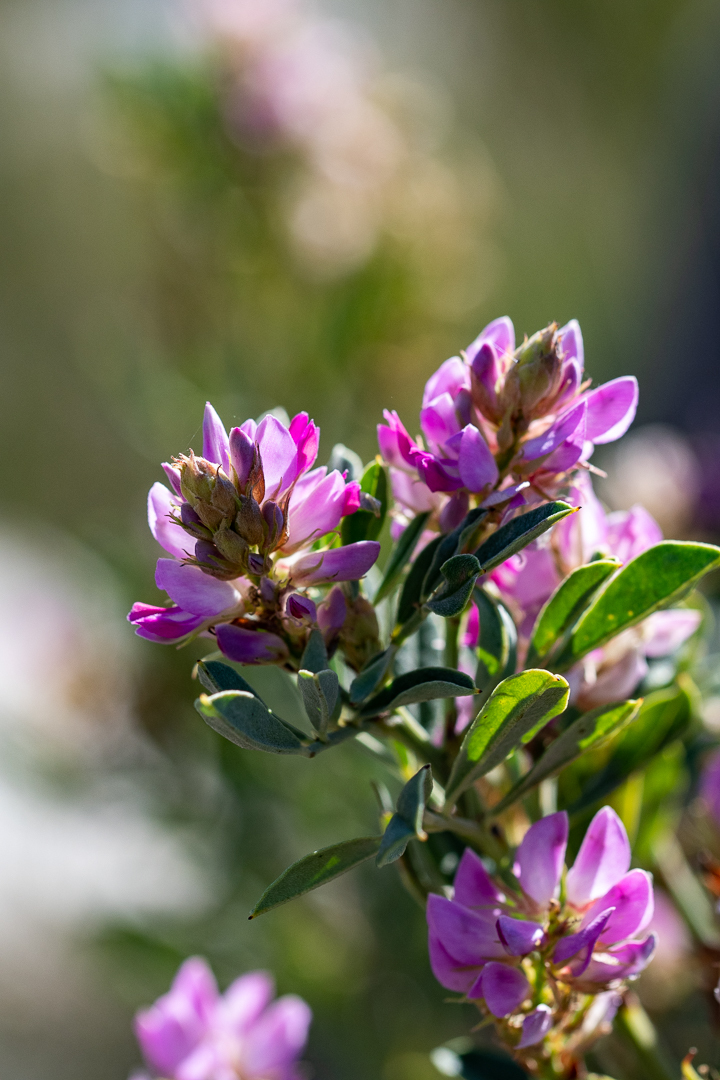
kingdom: Plantae
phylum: Tracheophyta
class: Magnoliopsida
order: Fabales
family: Fabaceae
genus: Indigofera
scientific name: Indigofera cytisoides
